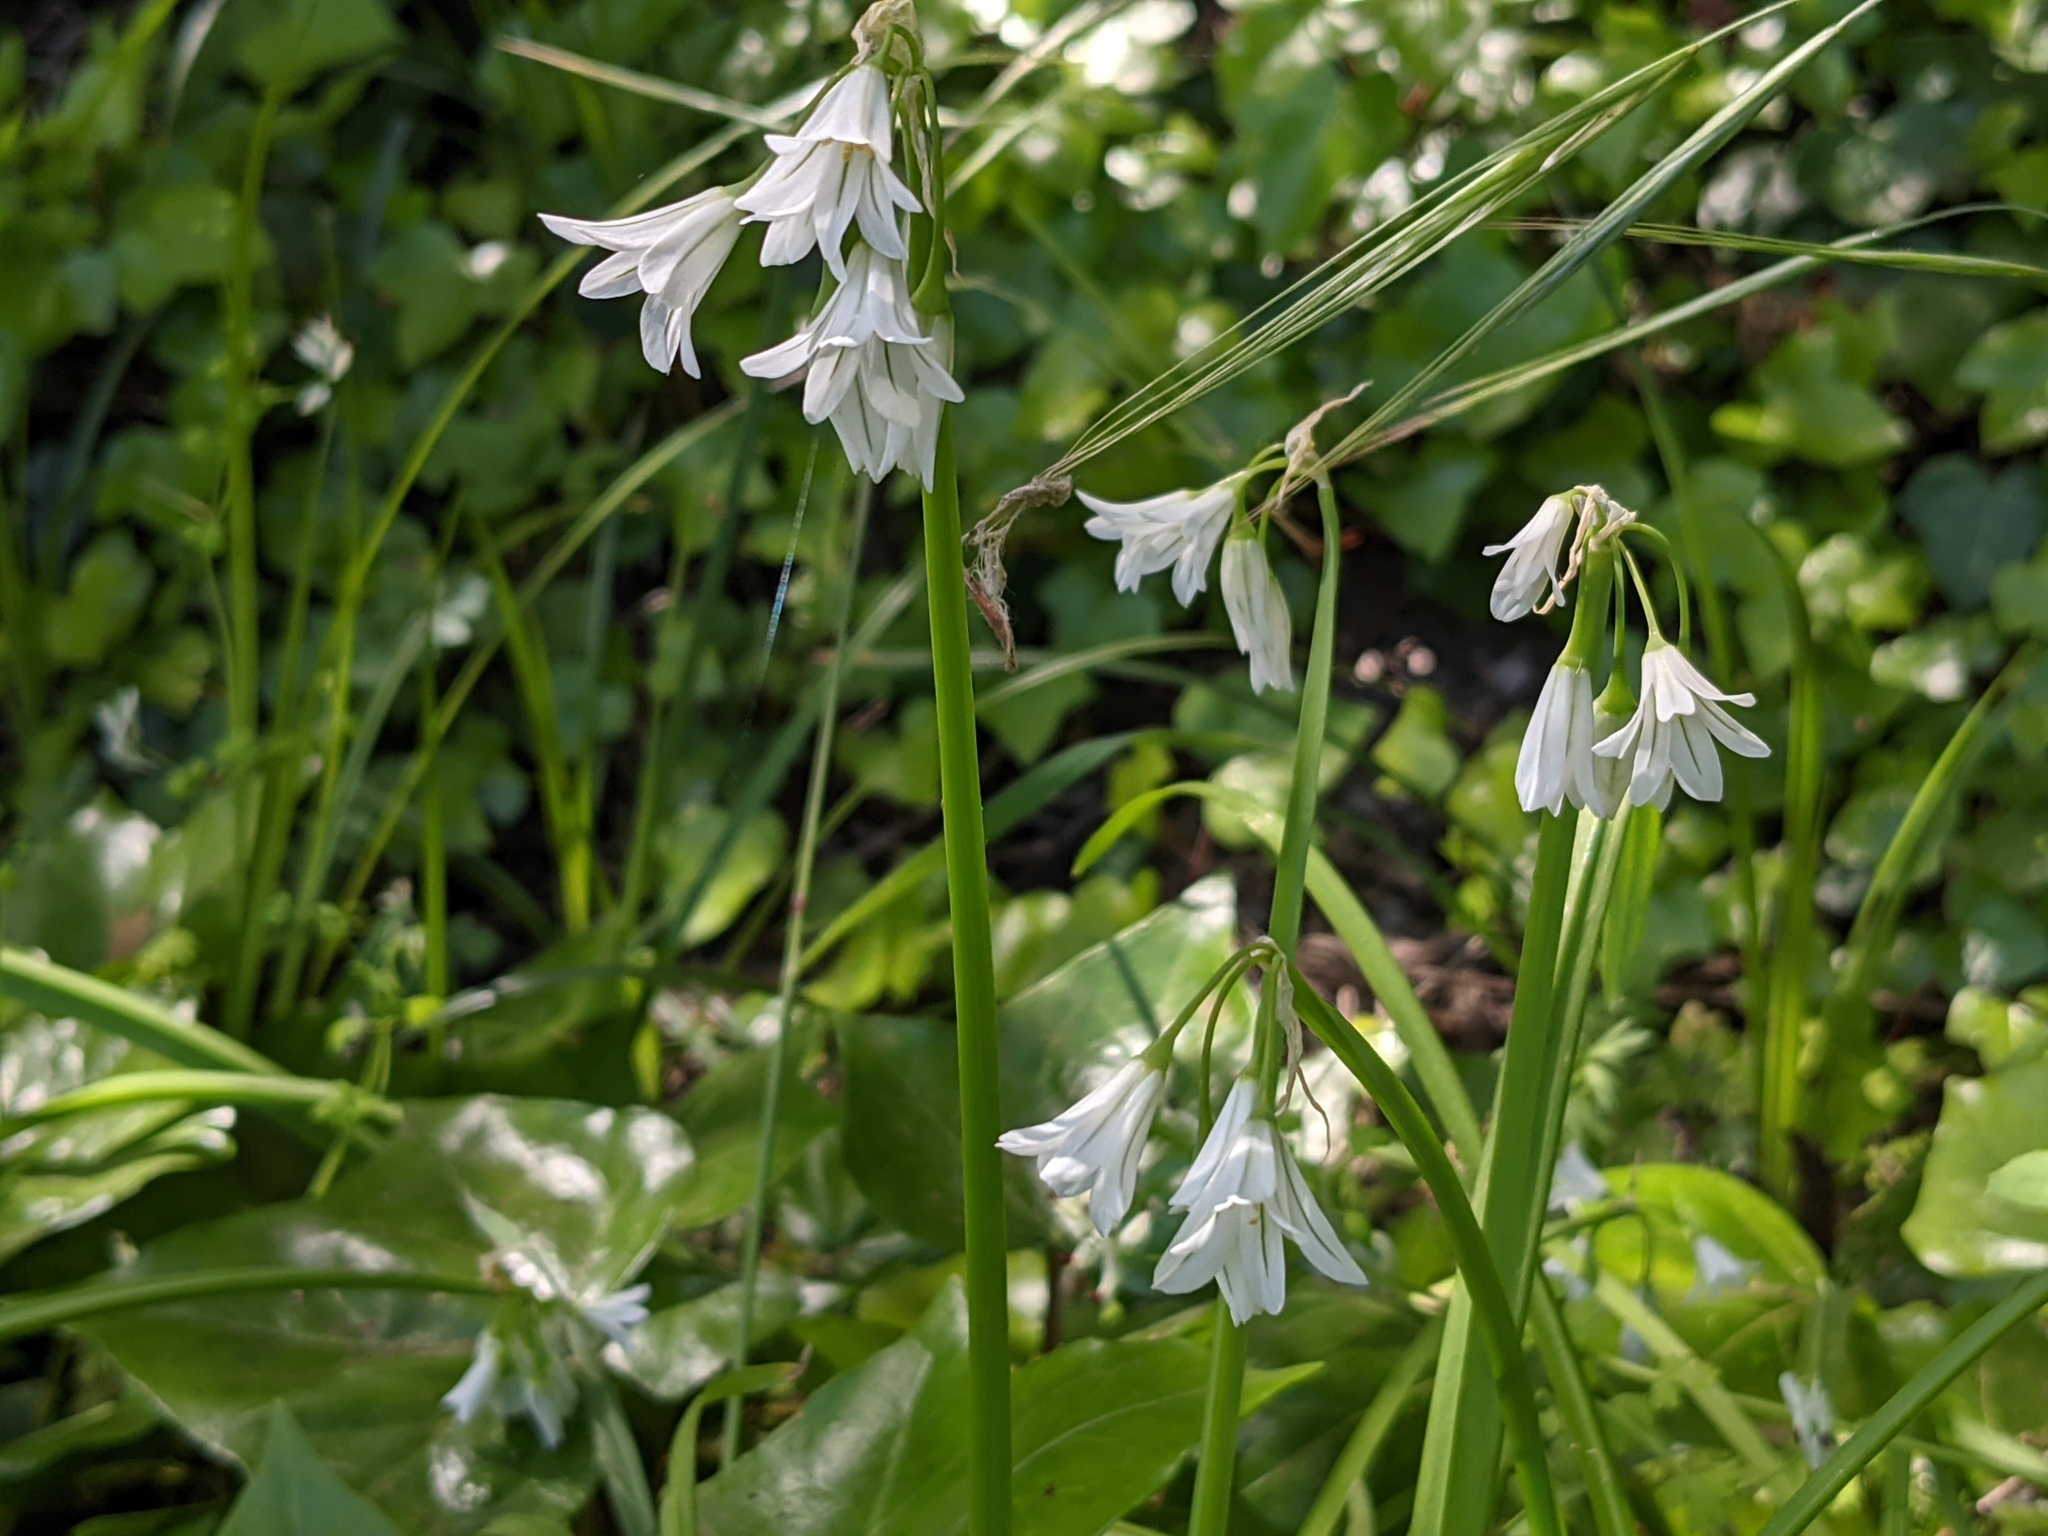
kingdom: Plantae
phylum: Tracheophyta
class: Liliopsida
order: Asparagales
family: Amaryllidaceae
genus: Allium
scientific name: Allium triquetrum
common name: Three-cornered garlic
